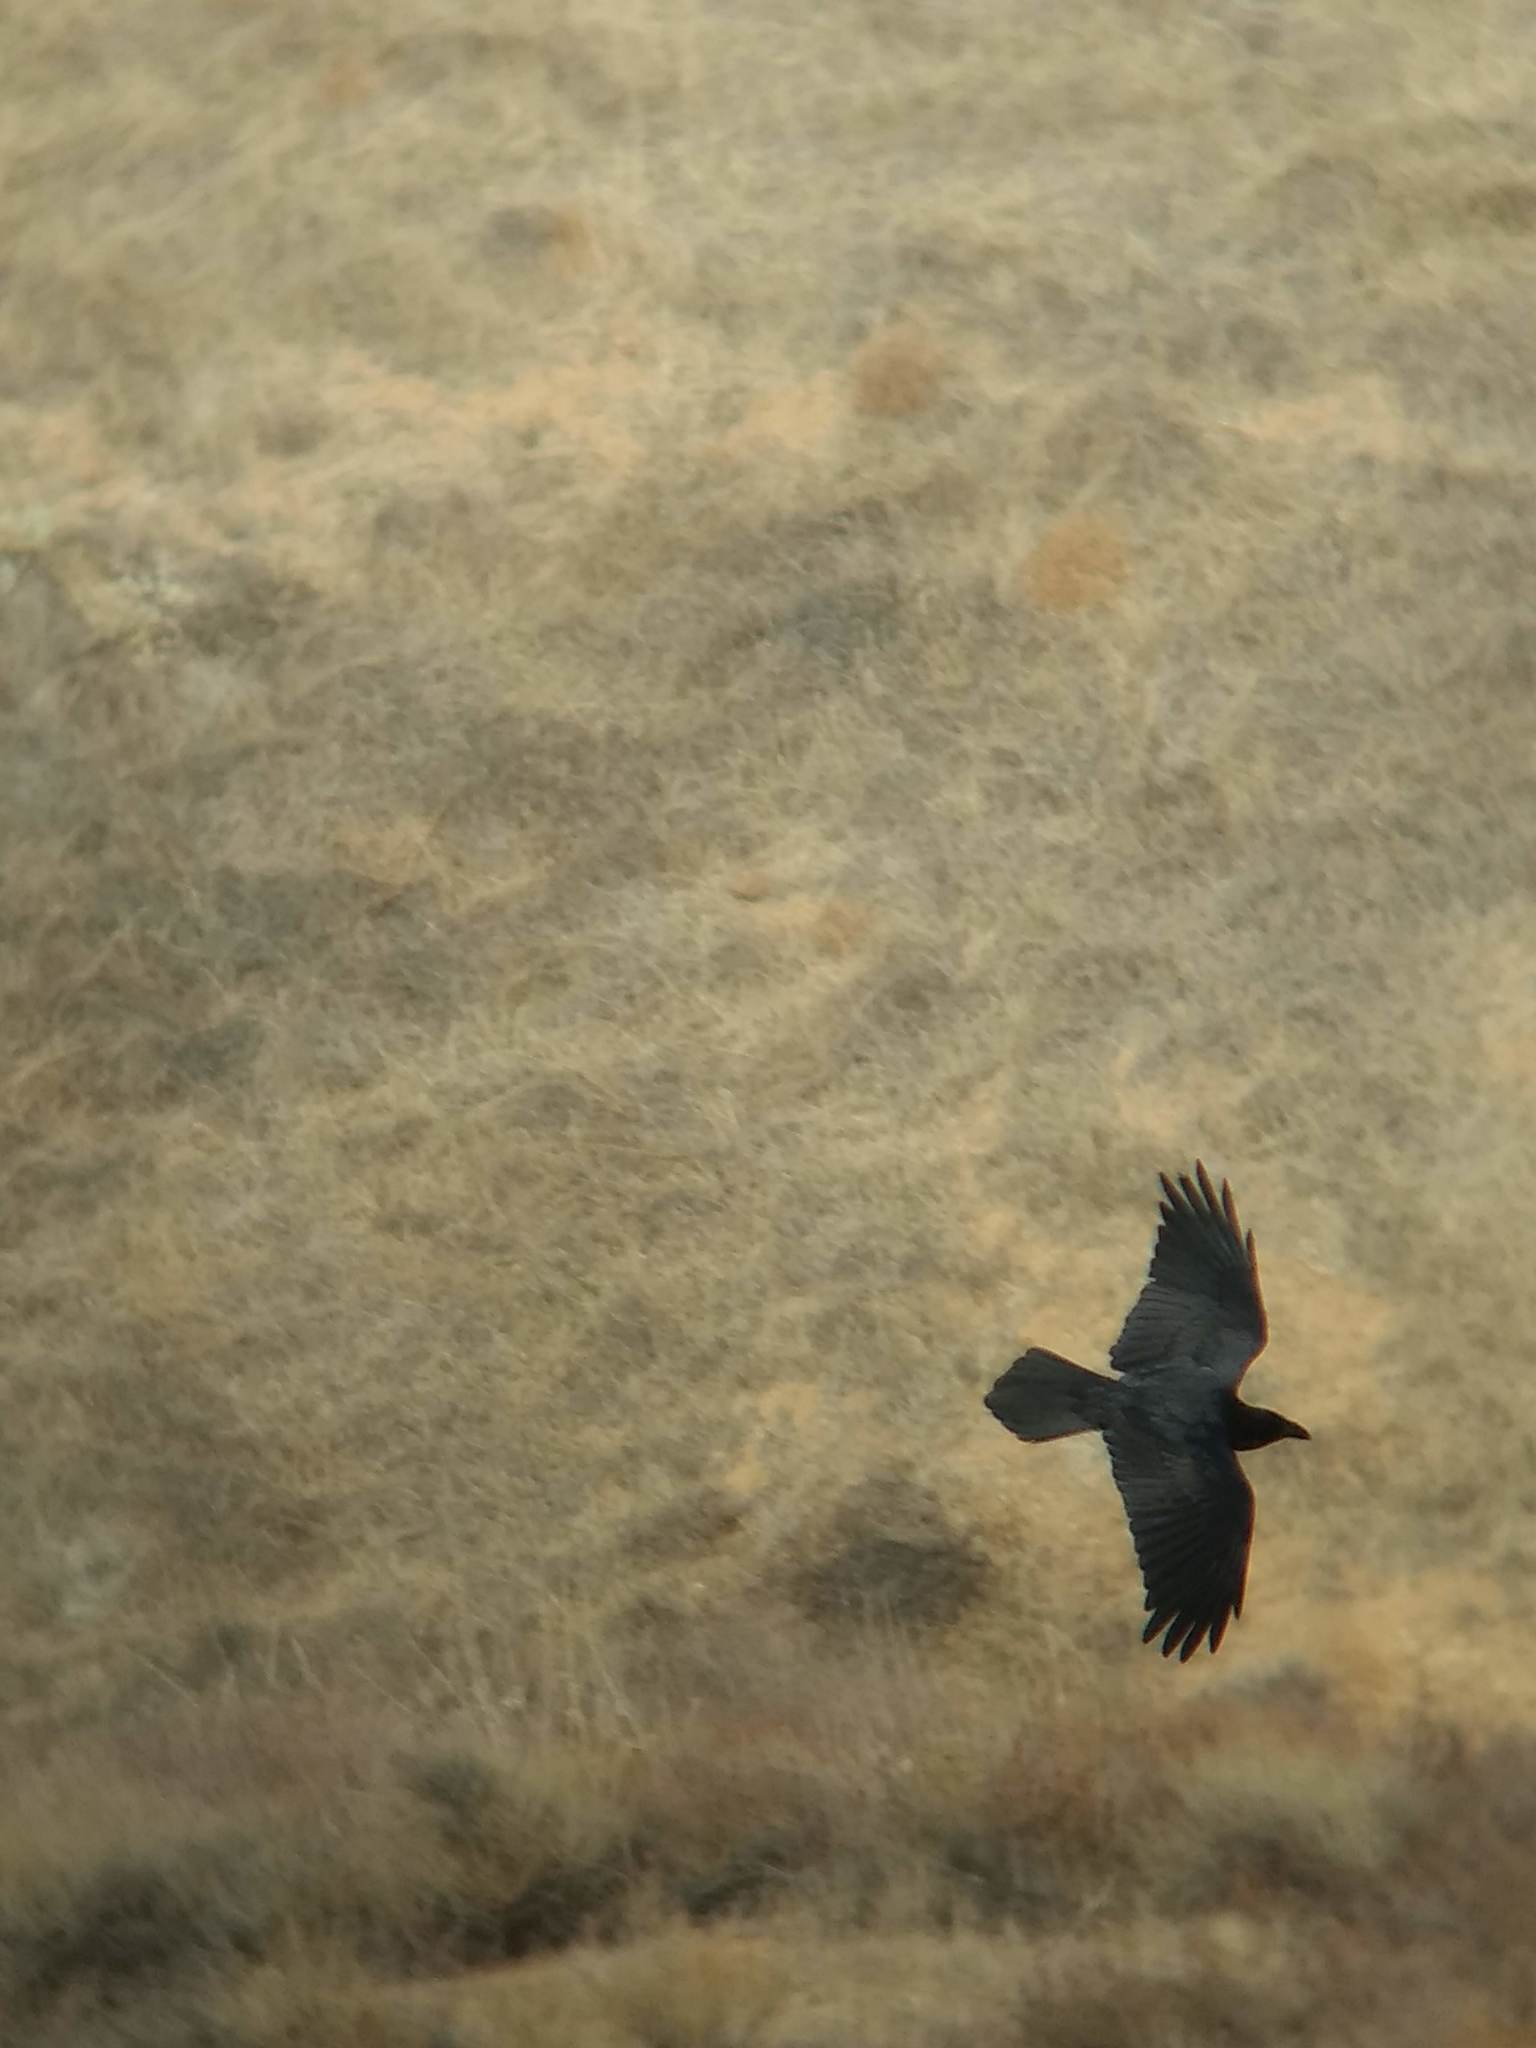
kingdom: Animalia
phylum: Chordata
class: Aves
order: Passeriformes
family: Corvidae
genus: Corvus
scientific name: Corvus corax
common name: Common raven
